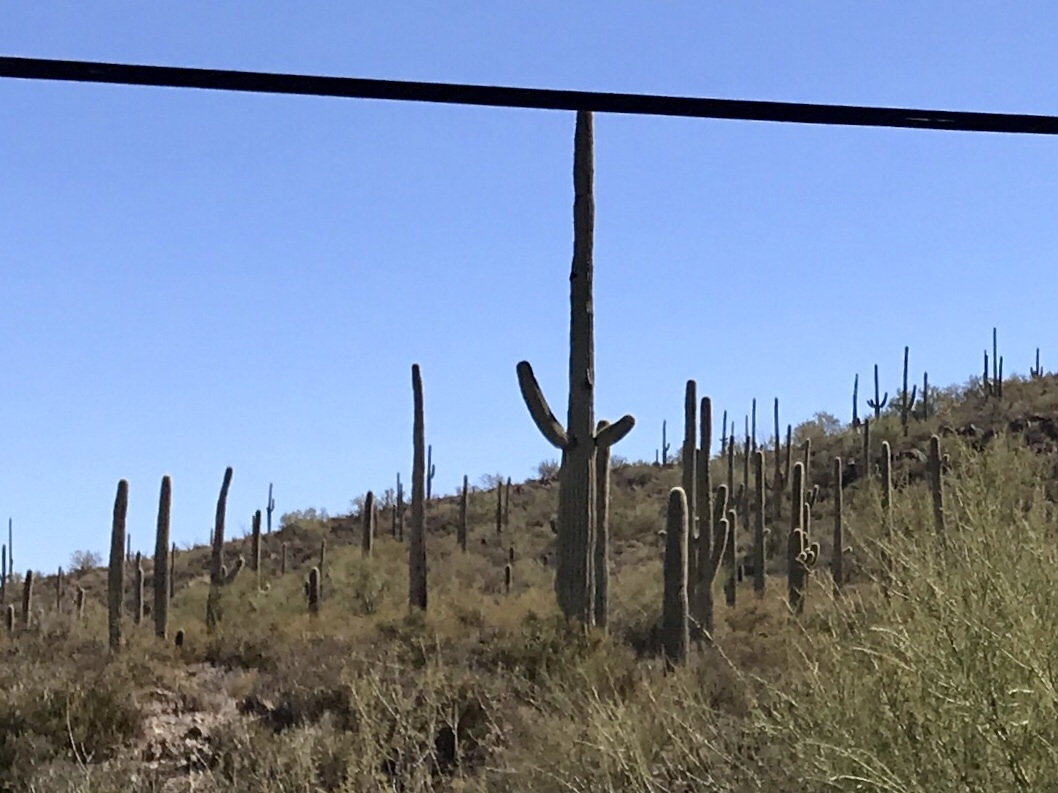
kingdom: Plantae
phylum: Tracheophyta
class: Magnoliopsida
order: Caryophyllales
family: Cactaceae
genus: Carnegiea
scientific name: Carnegiea gigantea
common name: Saguaro
